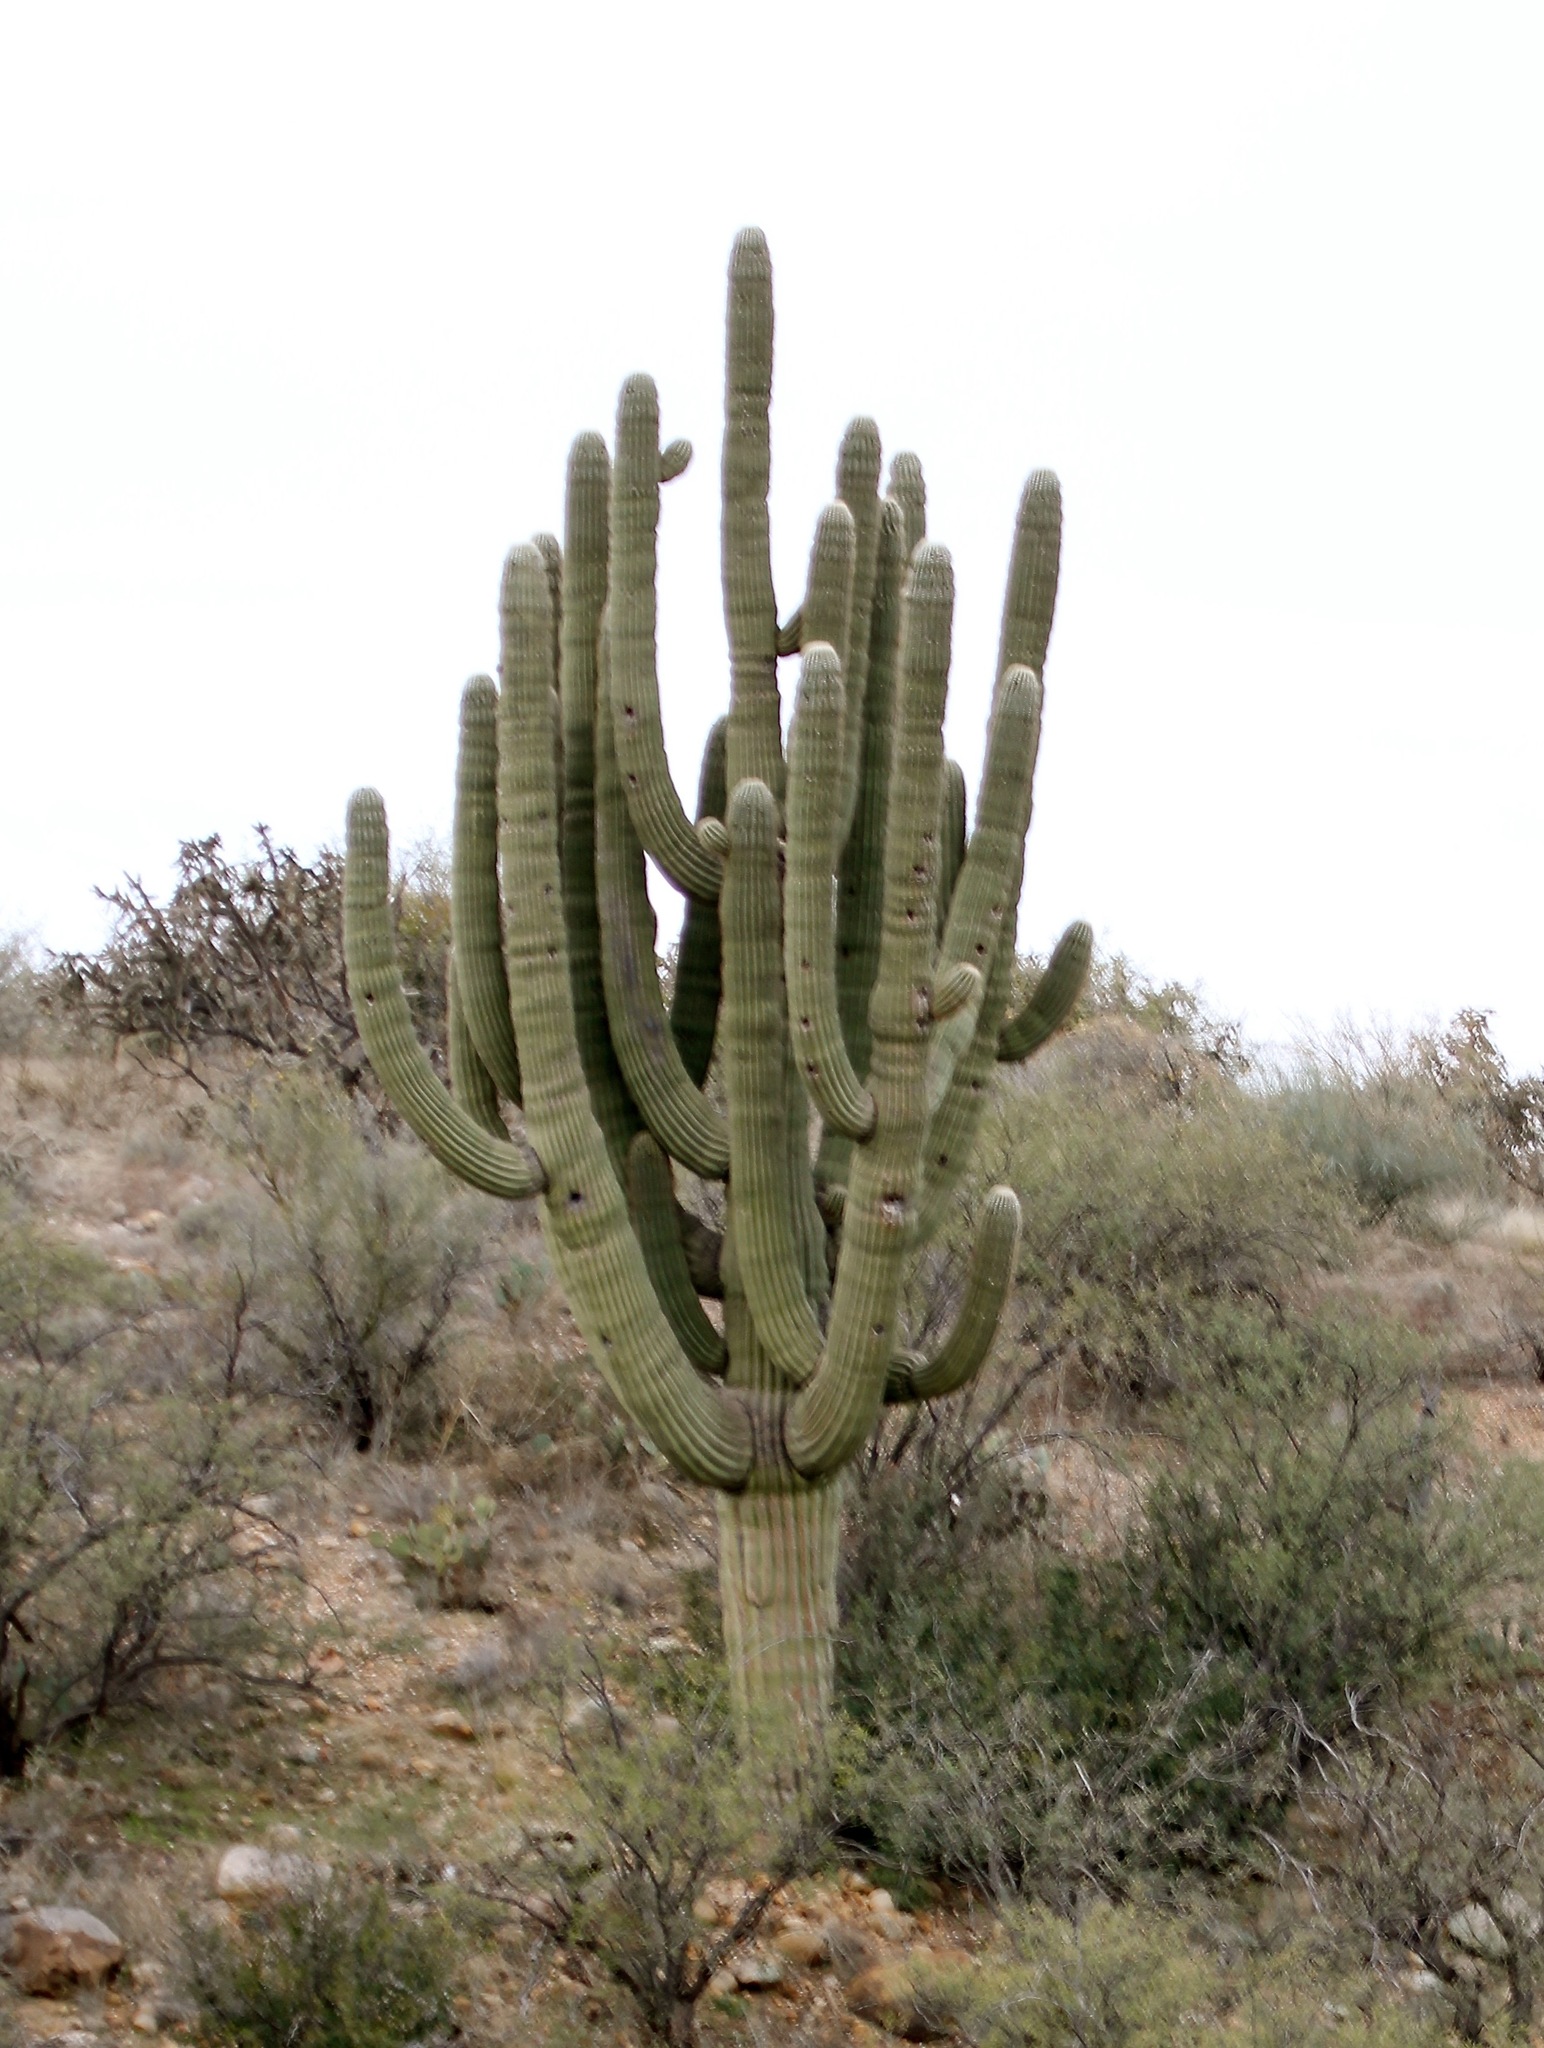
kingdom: Plantae
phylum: Tracheophyta
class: Magnoliopsida
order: Caryophyllales
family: Cactaceae
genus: Carnegiea
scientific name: Carnegiea gigantea
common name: Saguaro
